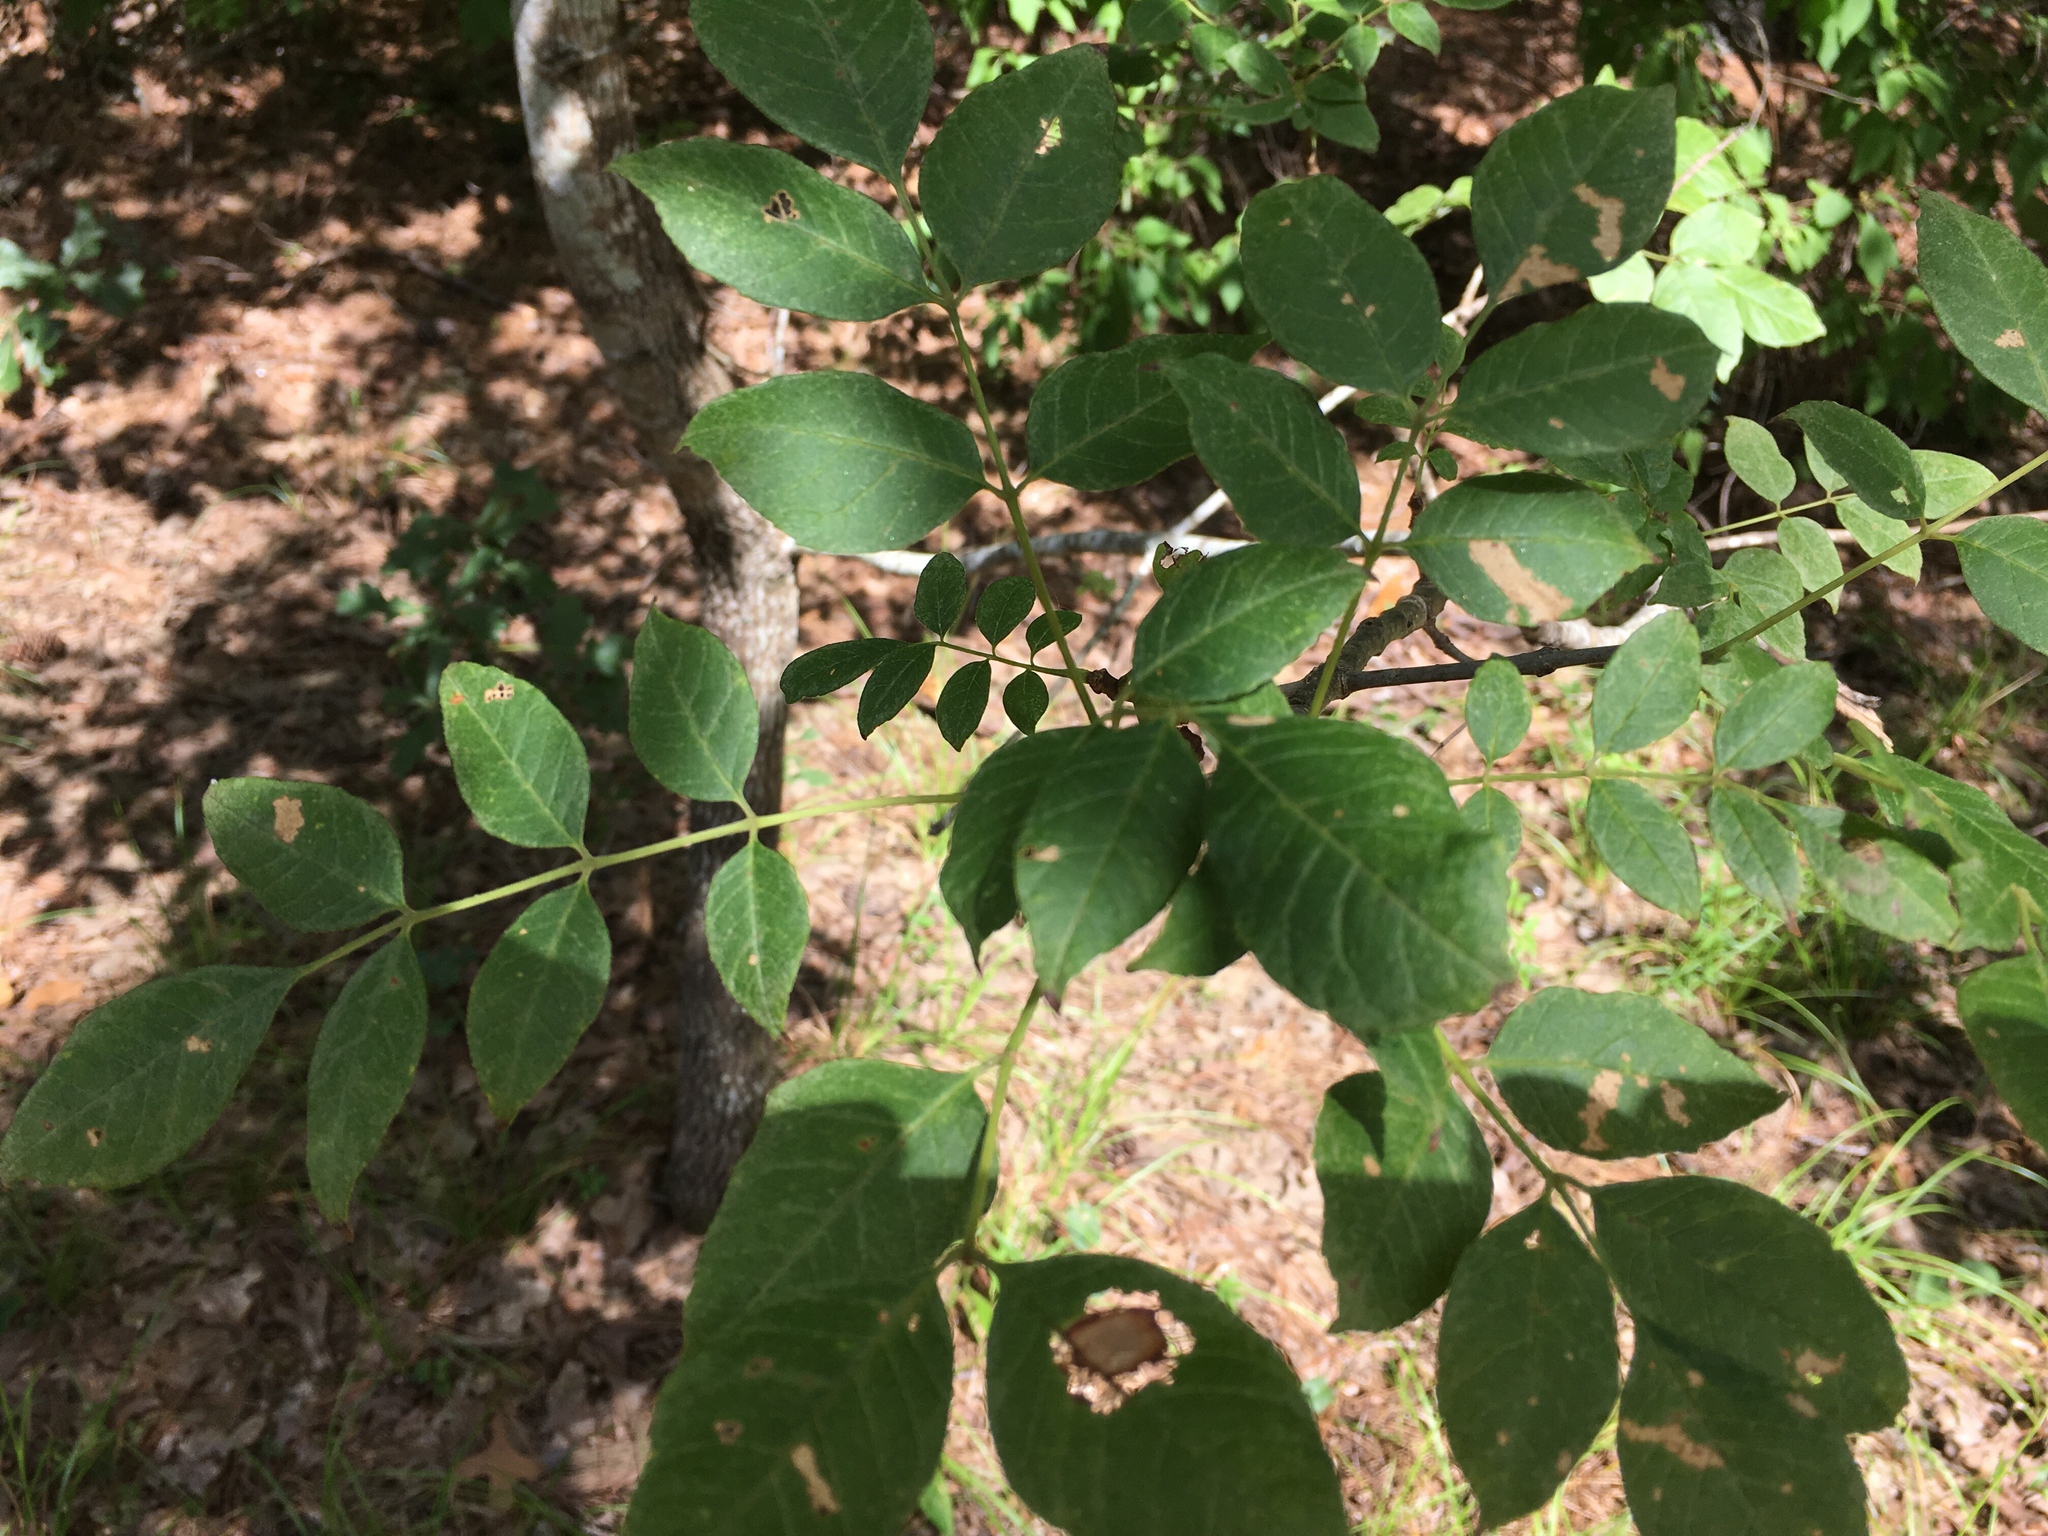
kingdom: Plantae
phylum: Tracheophyta
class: Magnoliopsida
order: Lamiales
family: Oleaceae
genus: Fraxinus
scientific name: Fraxinus americana
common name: White ash
